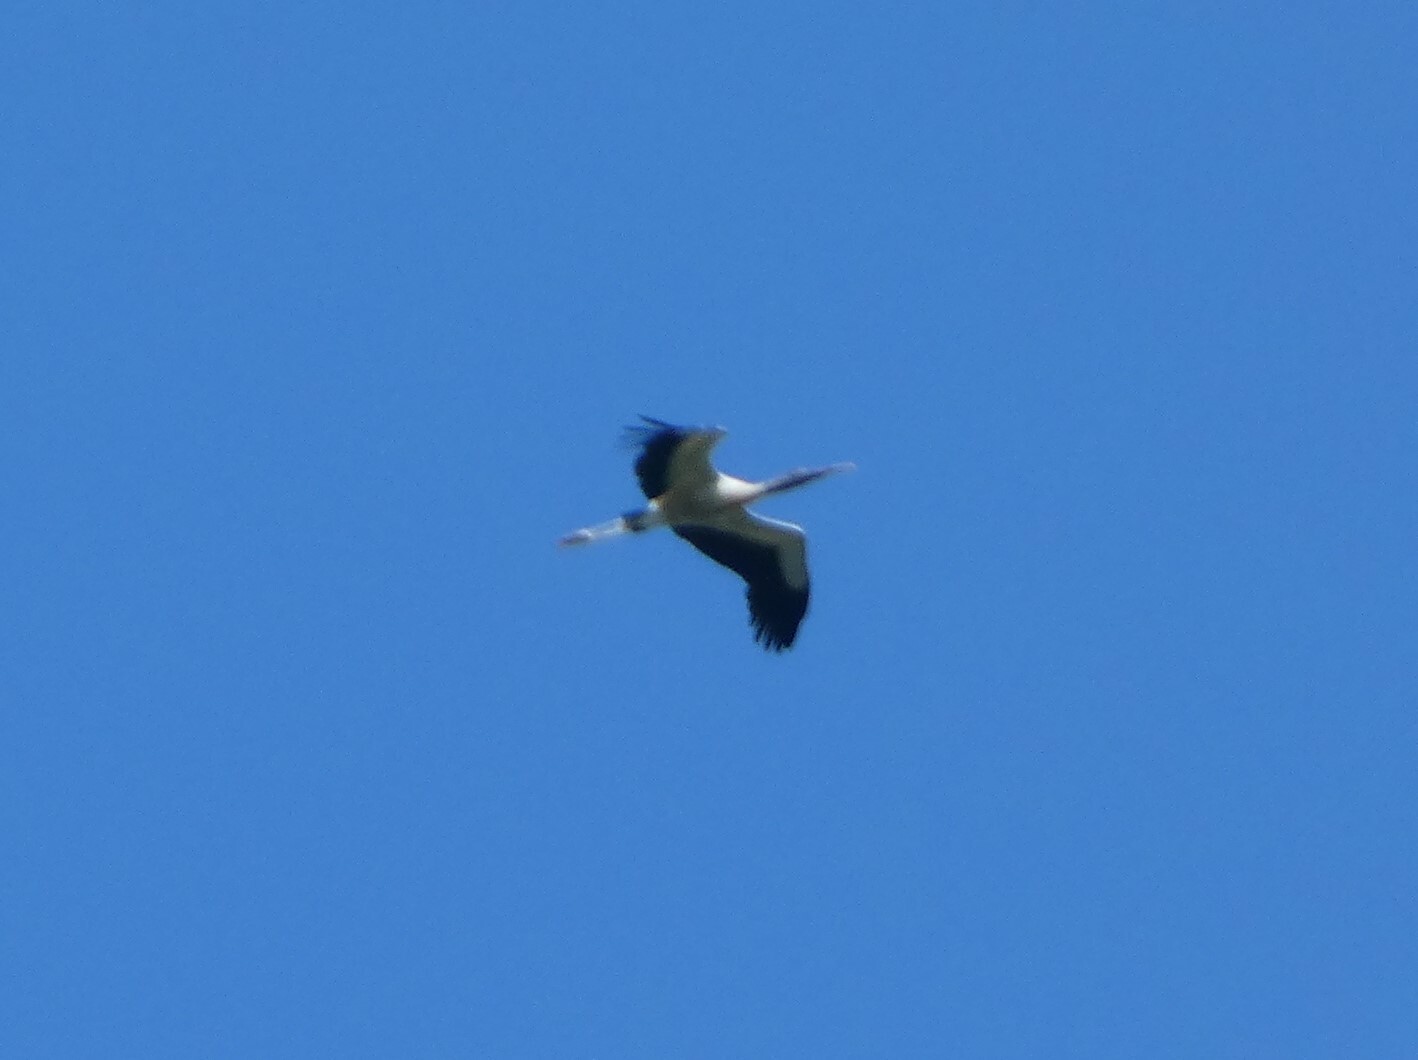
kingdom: Animalia
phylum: Chordata
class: Aves
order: Ciconiiformes
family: Ciconiidae
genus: Mycteria
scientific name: Mycteria americana
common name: Wood stork
